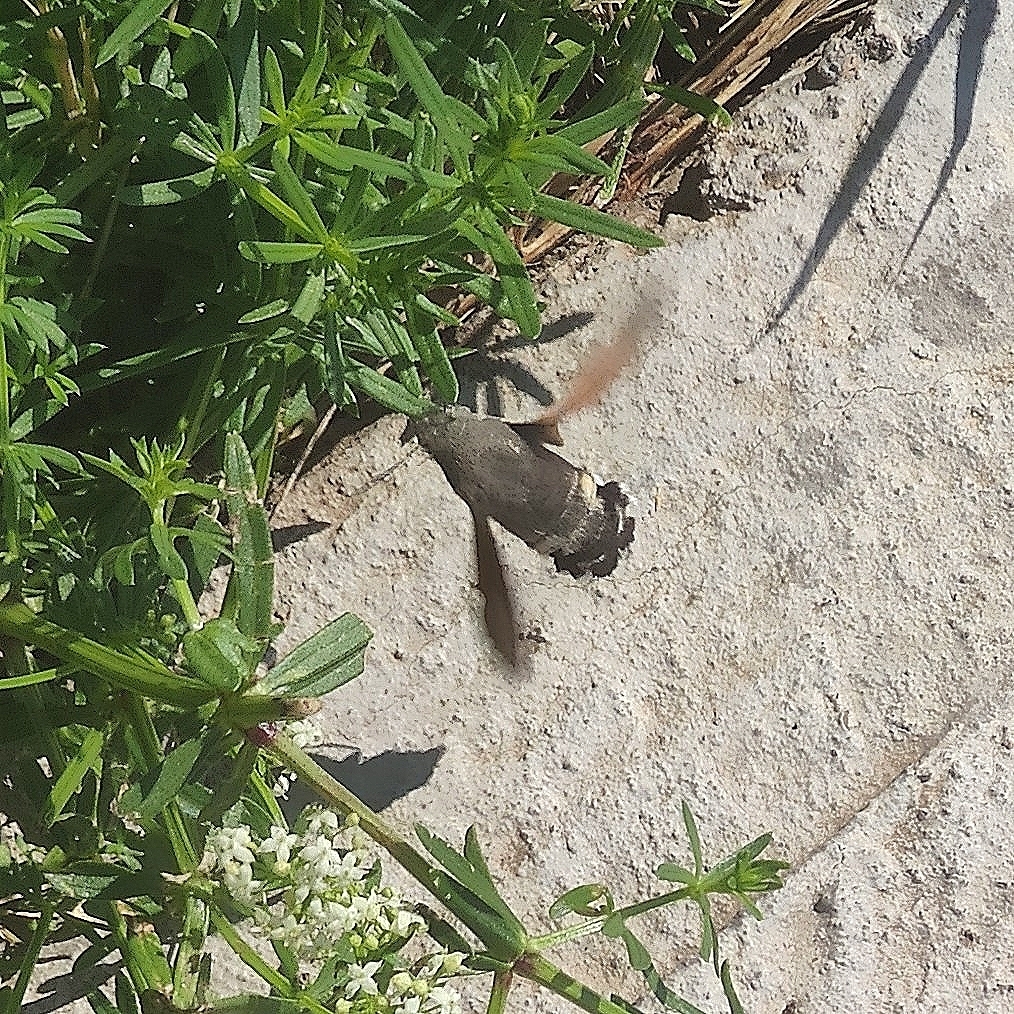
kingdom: Animalia
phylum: Arthropoda
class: Insecta
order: Lepidoptera
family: Sphingidae
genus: Macroglossum
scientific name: Macroglossum stellatarum
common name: Humming-bird hawk-moth
